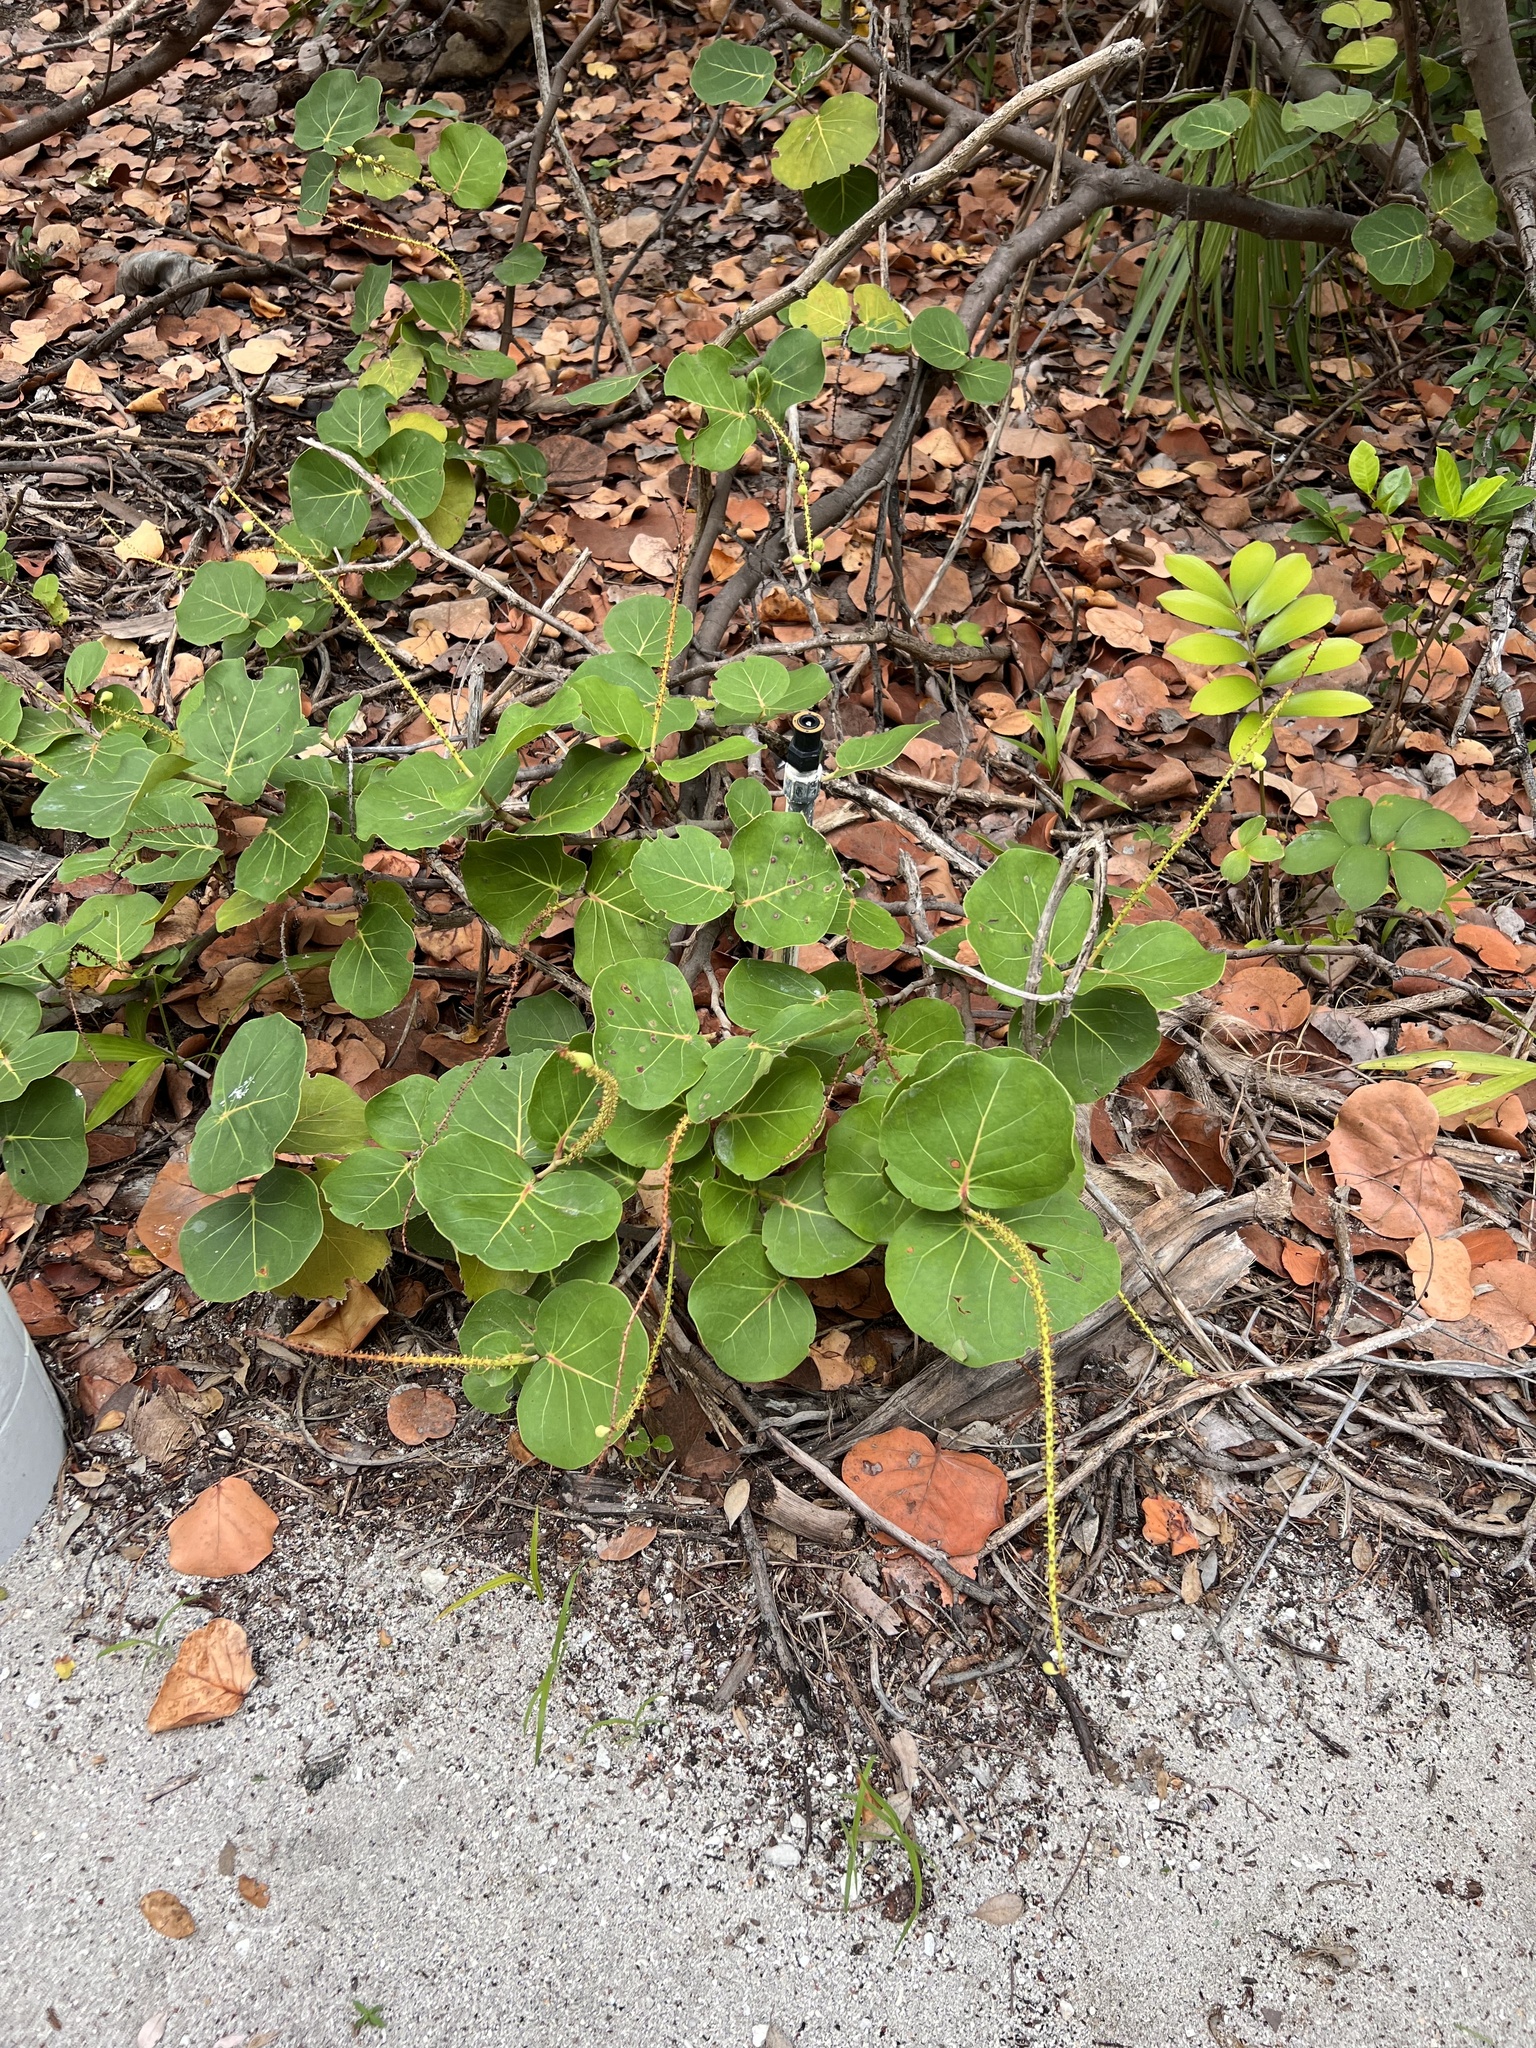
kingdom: Plantae
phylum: Tracheophyta
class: Magnoliopsida
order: Caryophyllales
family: Polygonaceae
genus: Coccoloba
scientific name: Coccoloba uvifera
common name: Seagrape
